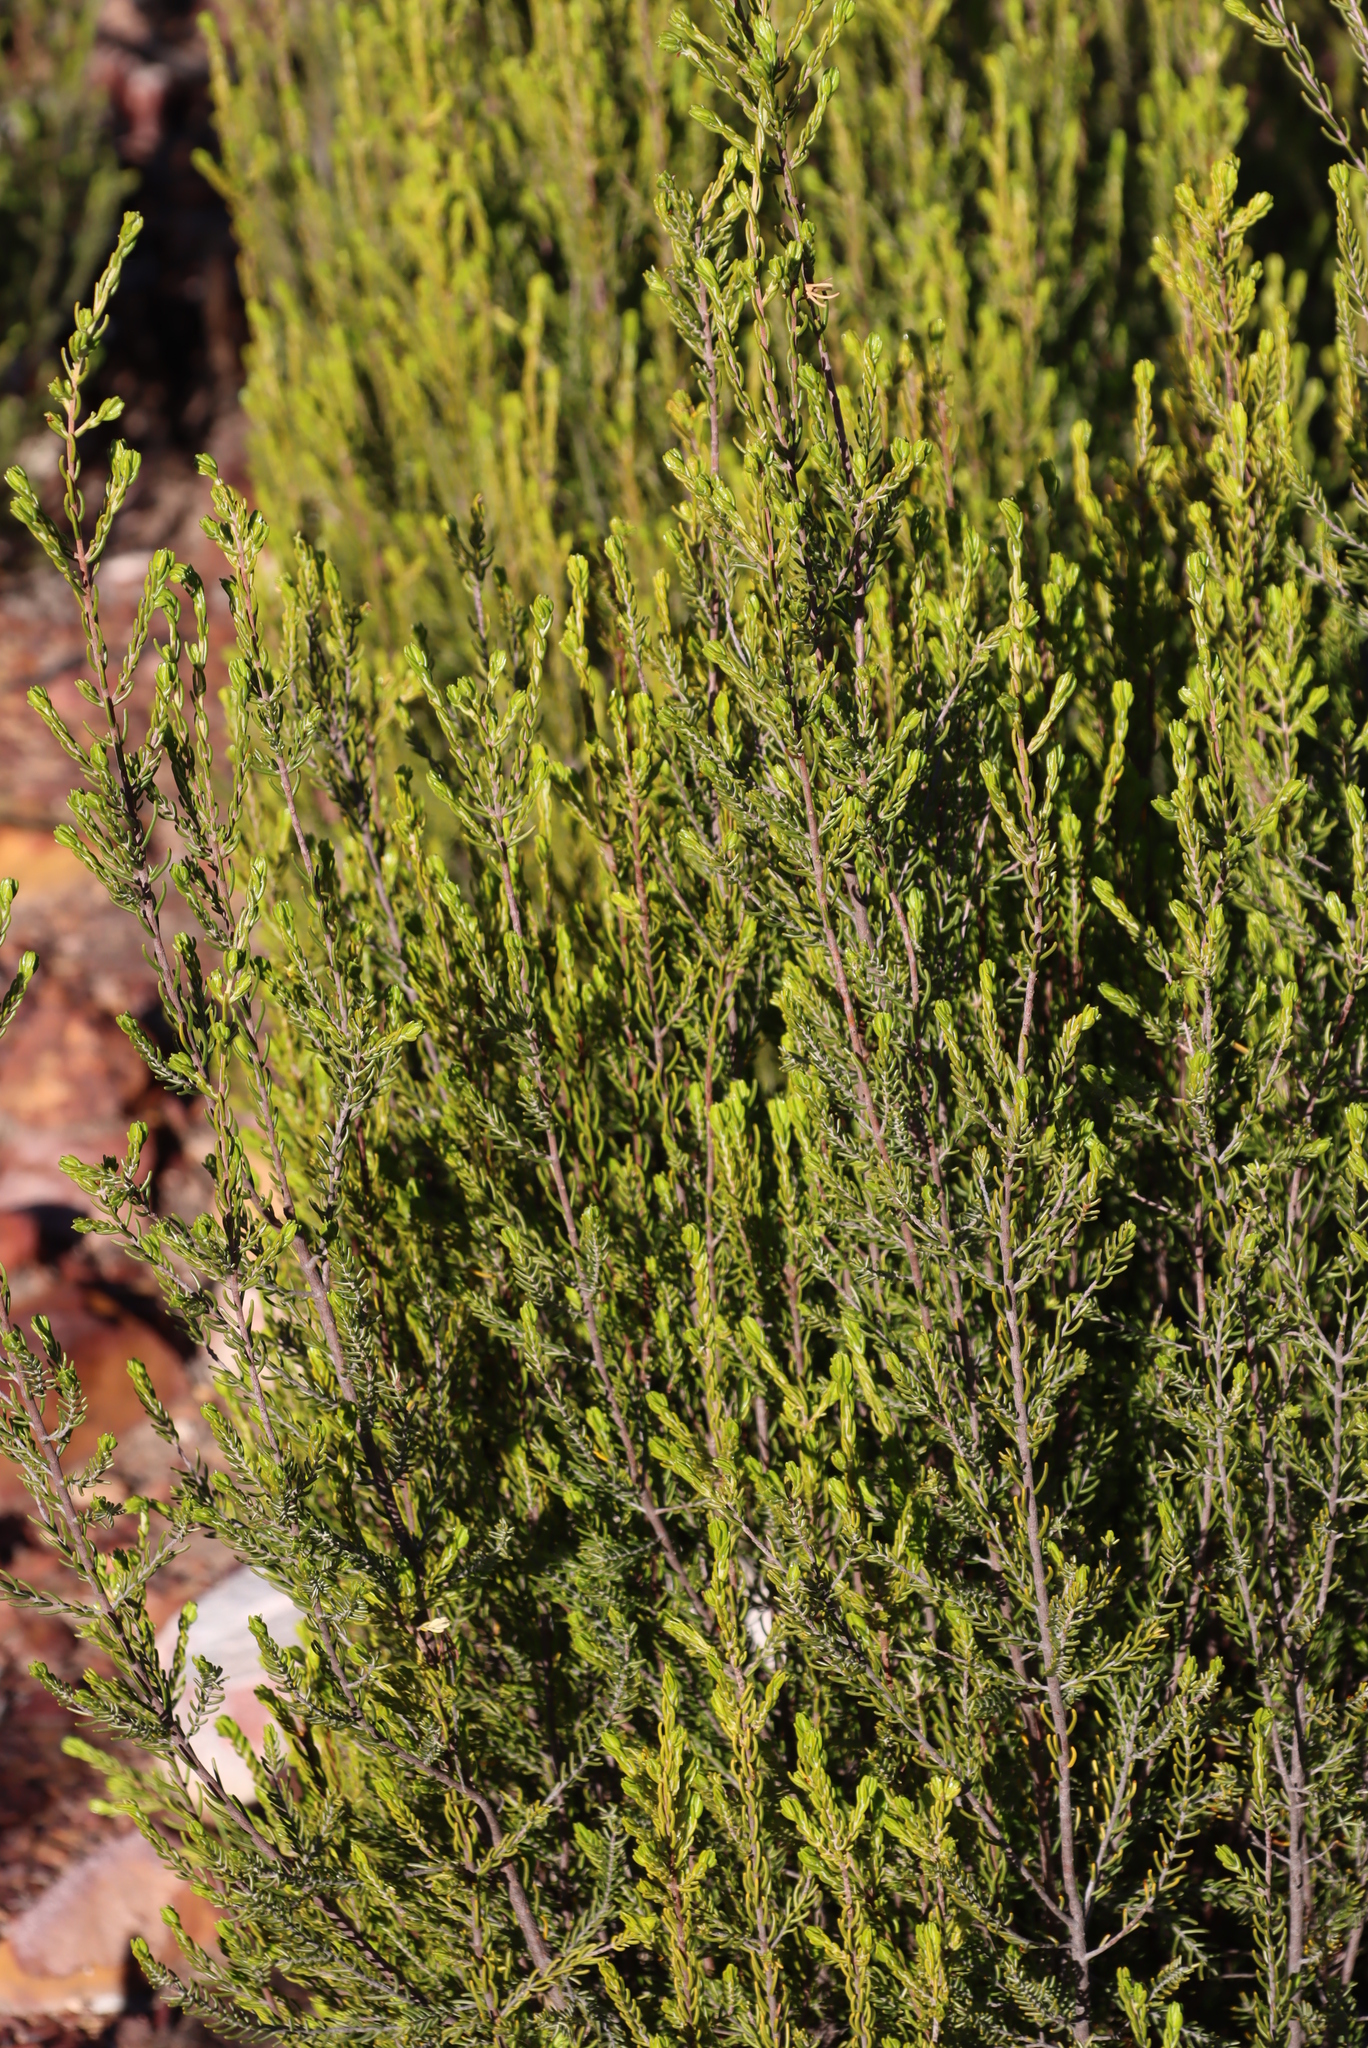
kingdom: Plantae
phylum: Tracheophyta
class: Magnoliopsida
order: Malvales
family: Thymelaeaceae
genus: Passerina
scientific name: Passerina obtusifolia
